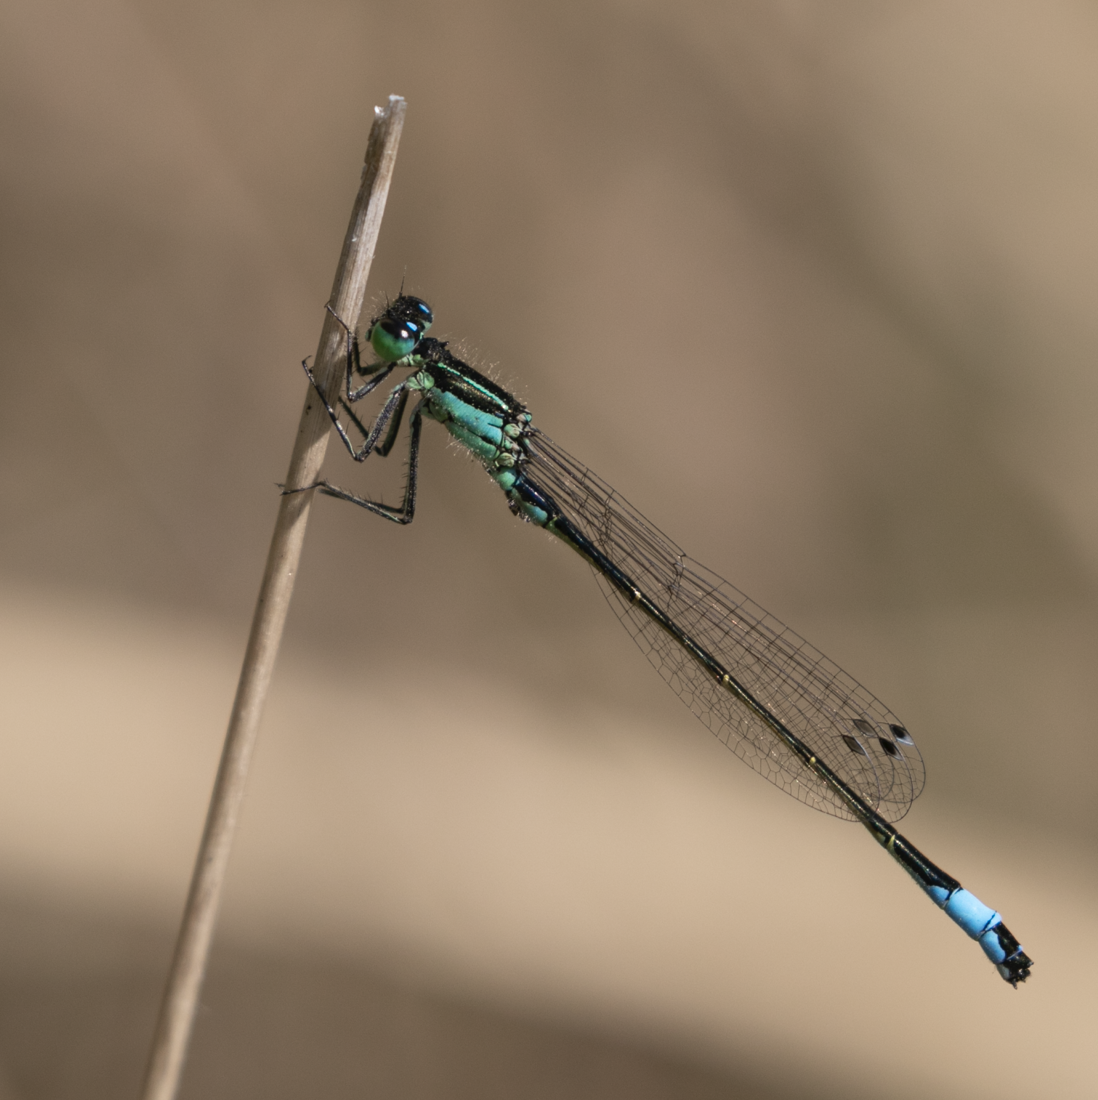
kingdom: Animalia
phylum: Arthropoda
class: Insecta
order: Odonata
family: Coenagrionidae
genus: Ischnura
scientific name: Ischnura elegans
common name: Blue-tailed damselfly
